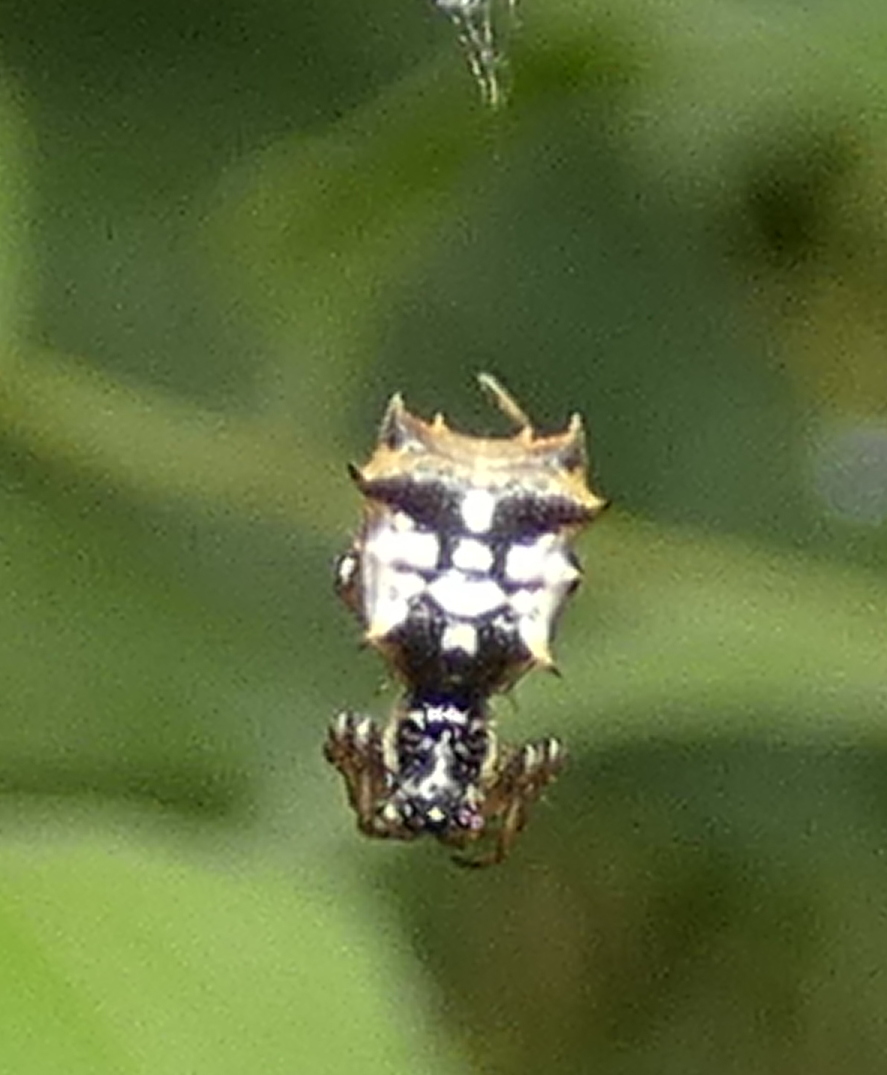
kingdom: Animalia
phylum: Arthropoda
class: Arachnida
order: Araneae
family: Araneidae
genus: Micrathena
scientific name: Micrathena picta
